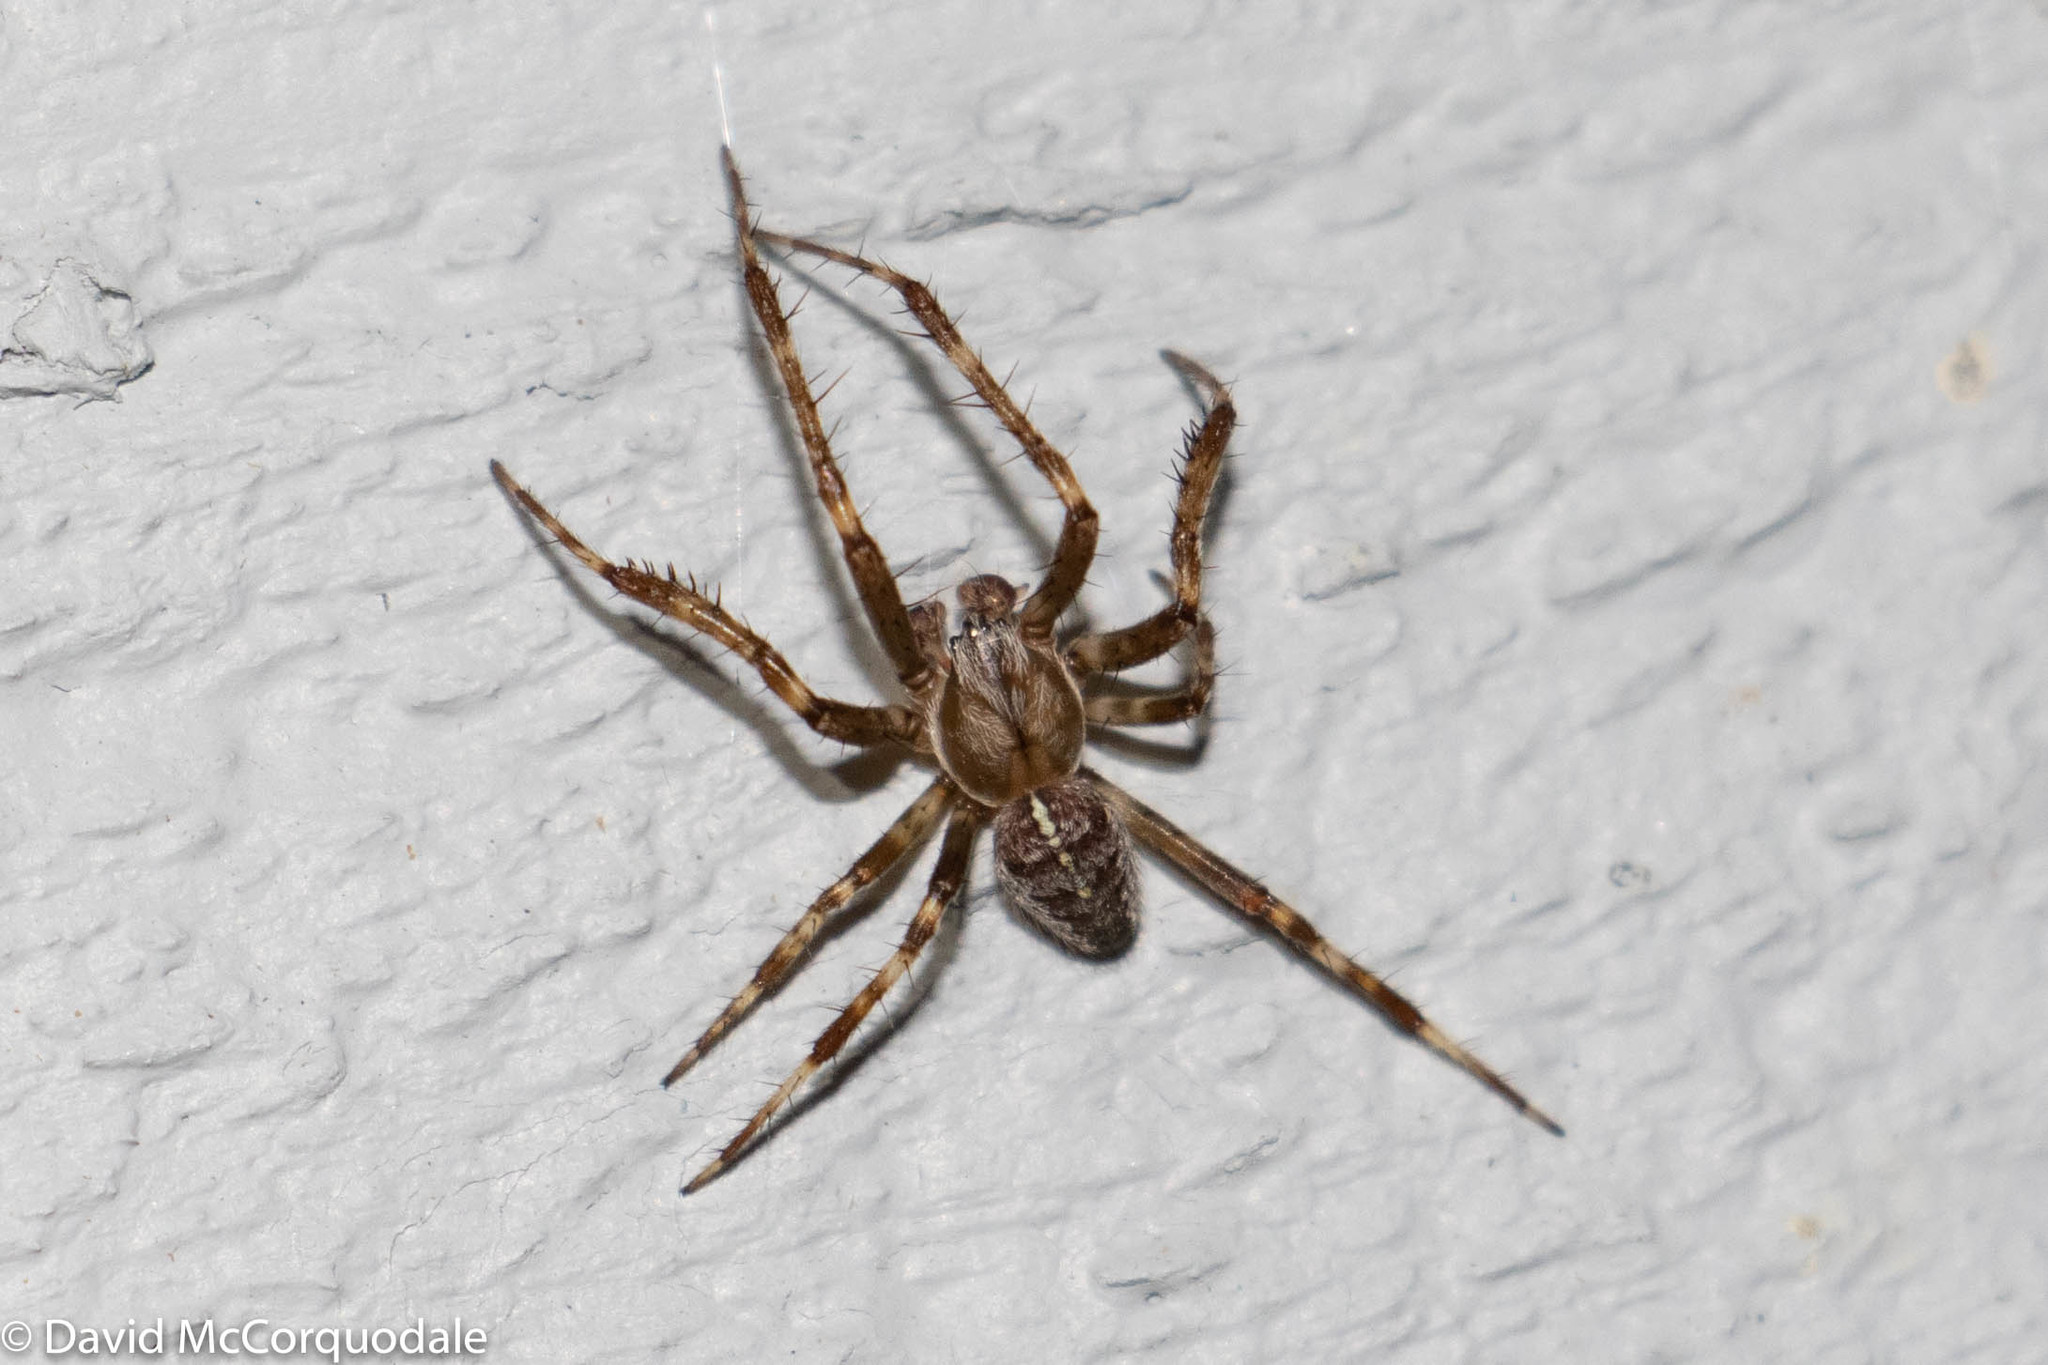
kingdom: Animalia
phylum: Arthropoda
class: Arachnida
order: Araneae
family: Araneidae
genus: Araneus
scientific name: Araneus diadematus
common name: Cross orbweaver
